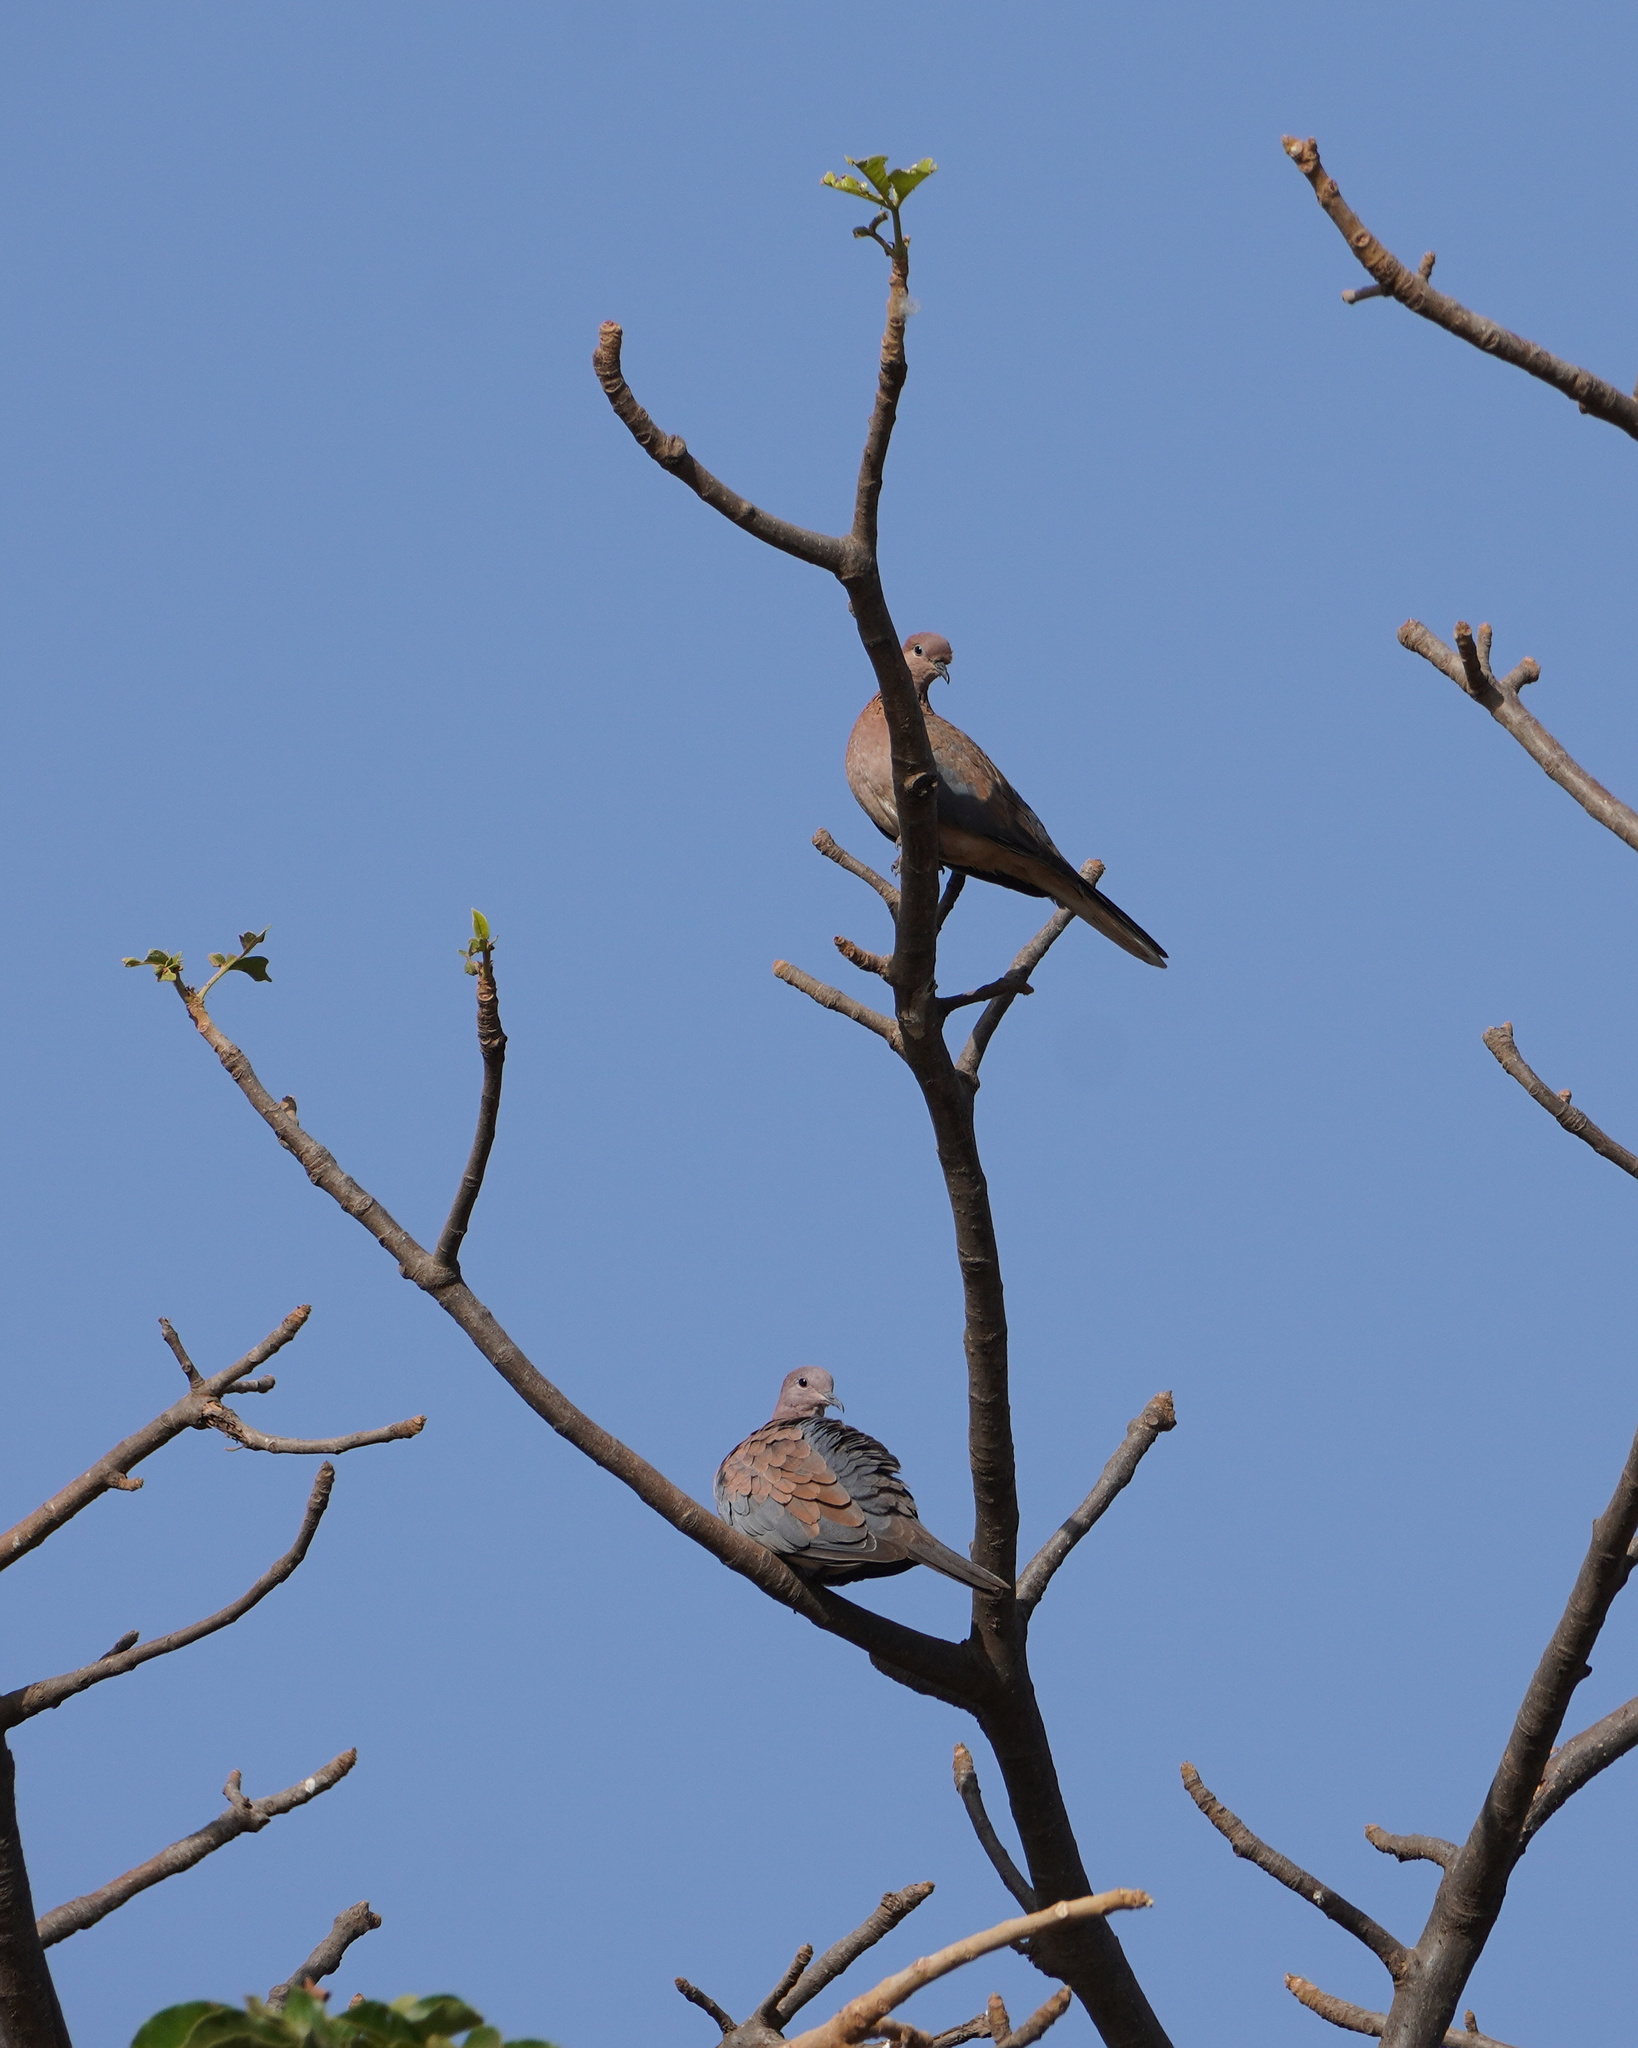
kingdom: Animalia
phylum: Chordata
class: Aves
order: Columbiformes
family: Columbidae
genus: Spilopelia
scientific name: Spilopelia senegalensis
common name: Laughing dove
